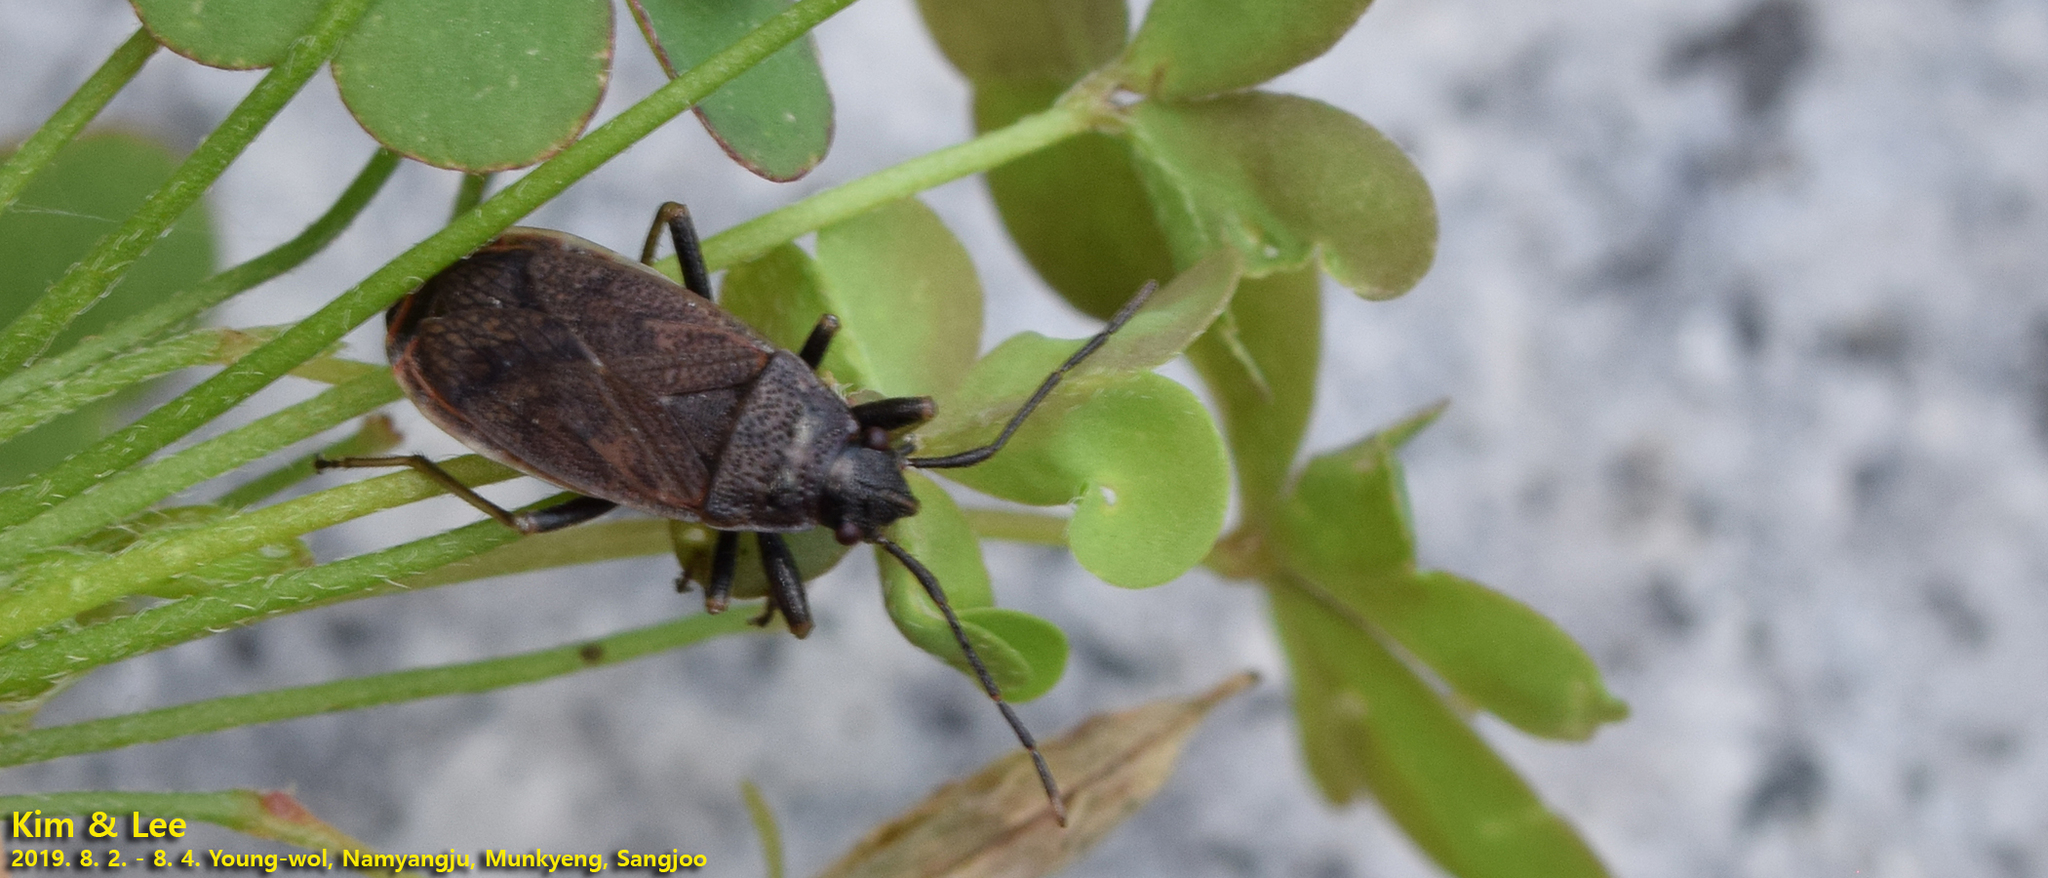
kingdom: Animalia
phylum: Arthropoda
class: Insecta
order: Hemiptera
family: Pyrrhocoridae
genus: Pyrrhocoris
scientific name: Pyrrhocoris sibiricus
